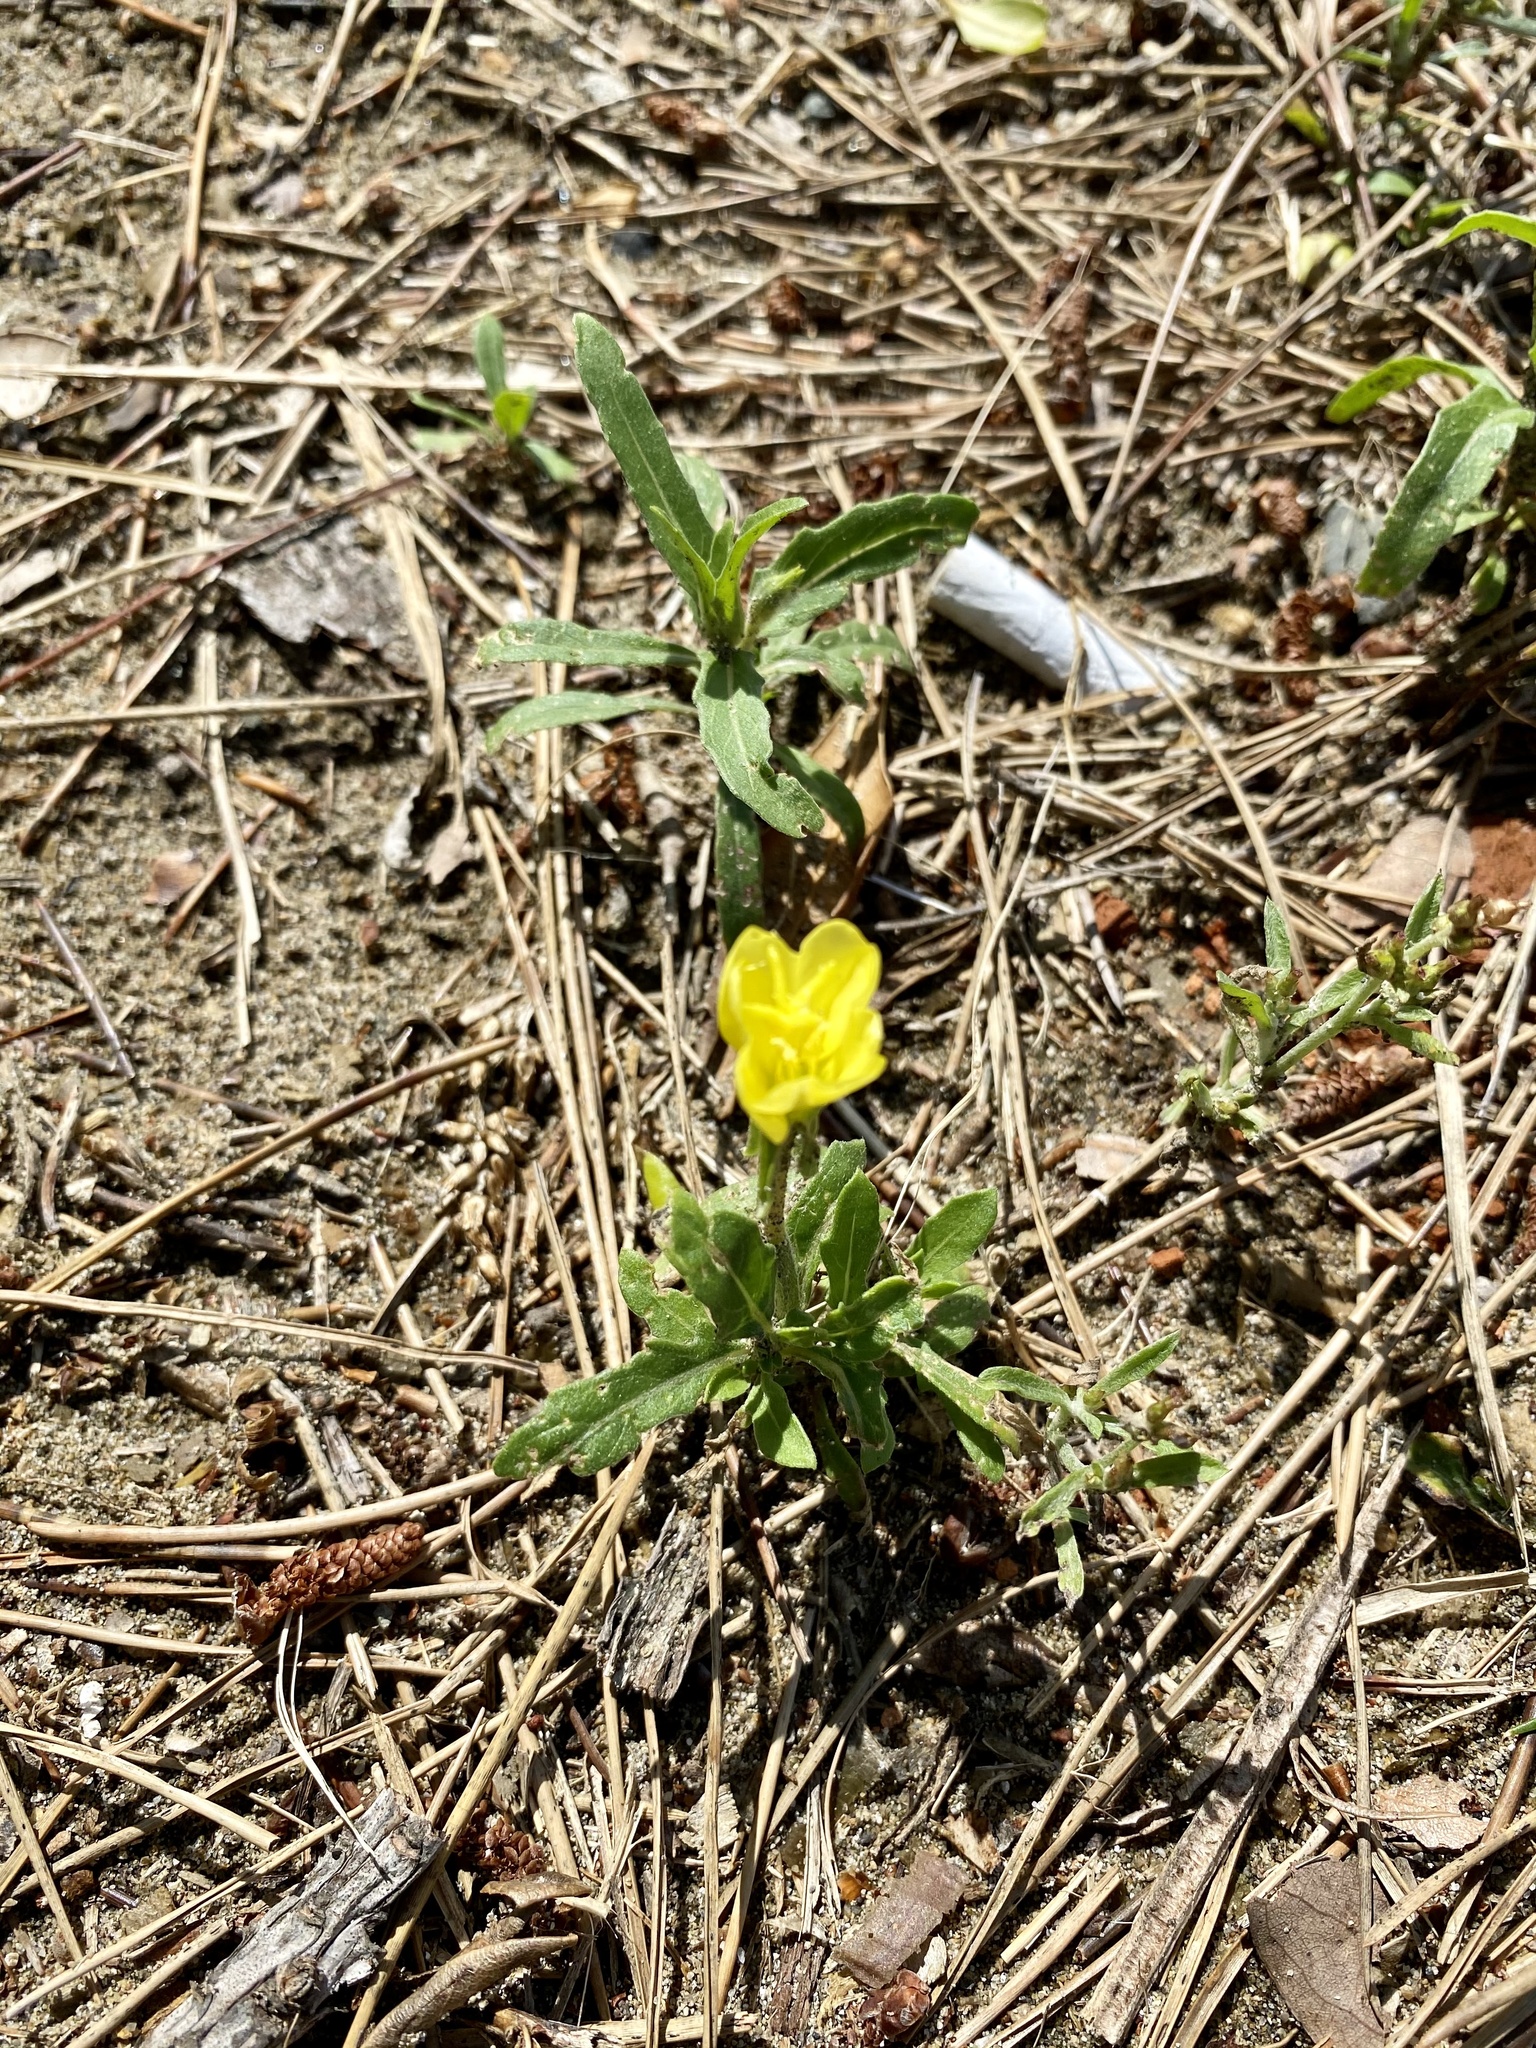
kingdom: Plantae
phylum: Tracheophyta
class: Magnoliopsida
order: Myrtales
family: Onagraceae
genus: Oenothera
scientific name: Oenothera laciniata
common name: Cut-leaved evening-primrose
